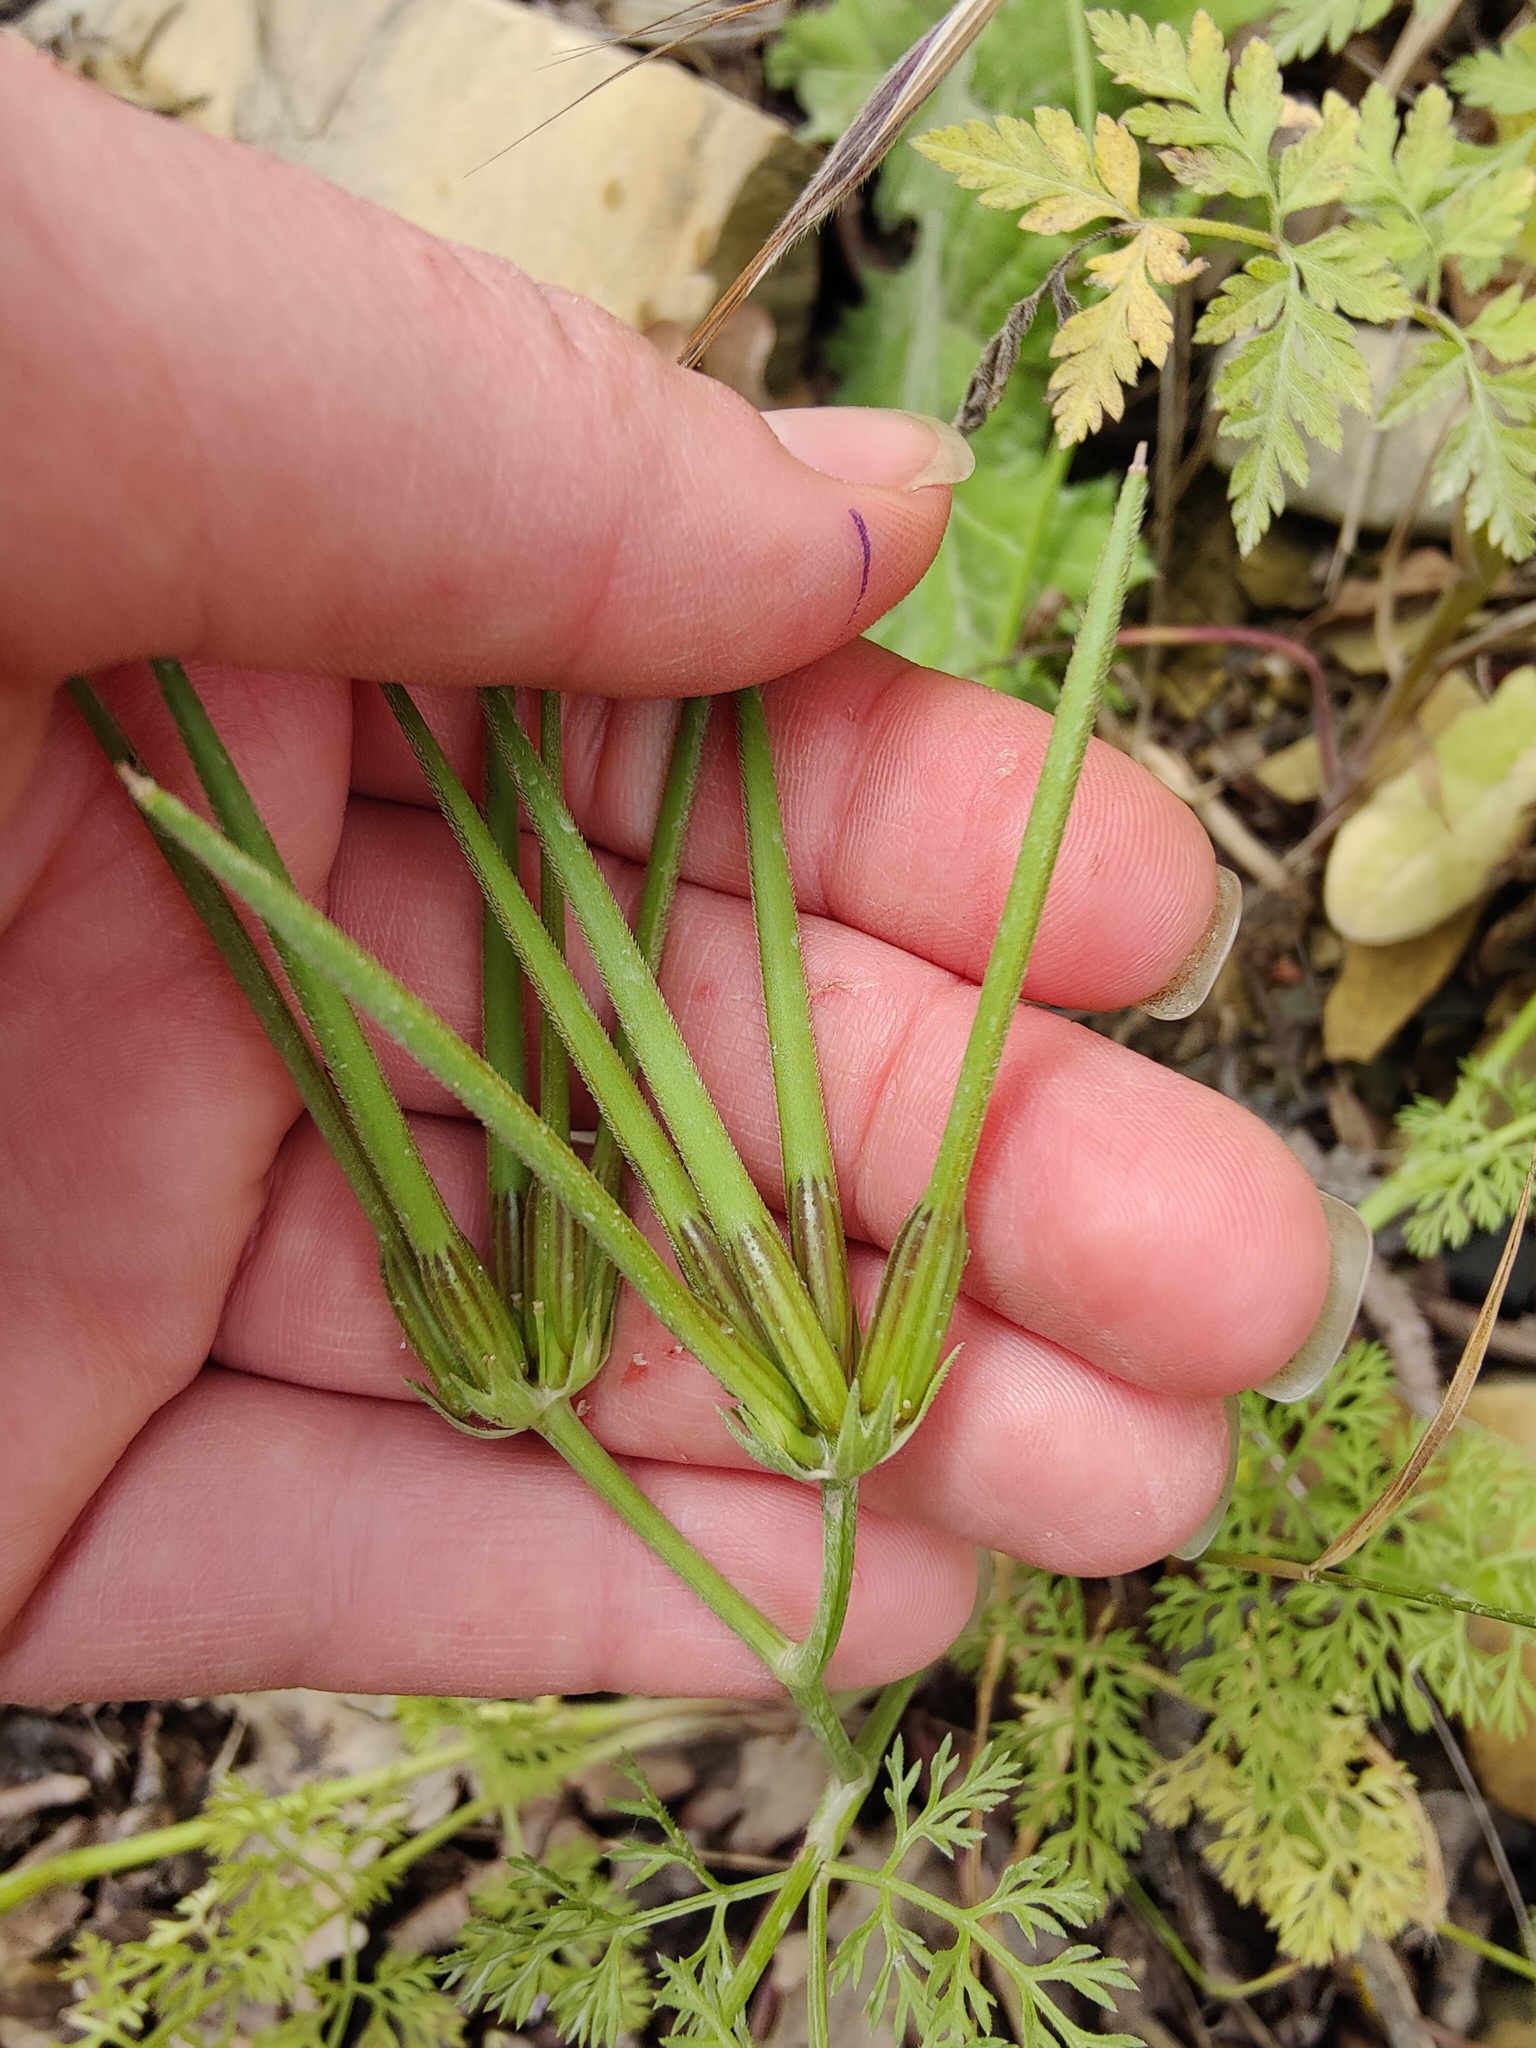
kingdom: Plantae
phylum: Tracheophyta
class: Magnoliopsida
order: Apiales
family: Apiaceae
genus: Scandix
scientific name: Scandix pecten-veneris
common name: Shepherd's-needle
